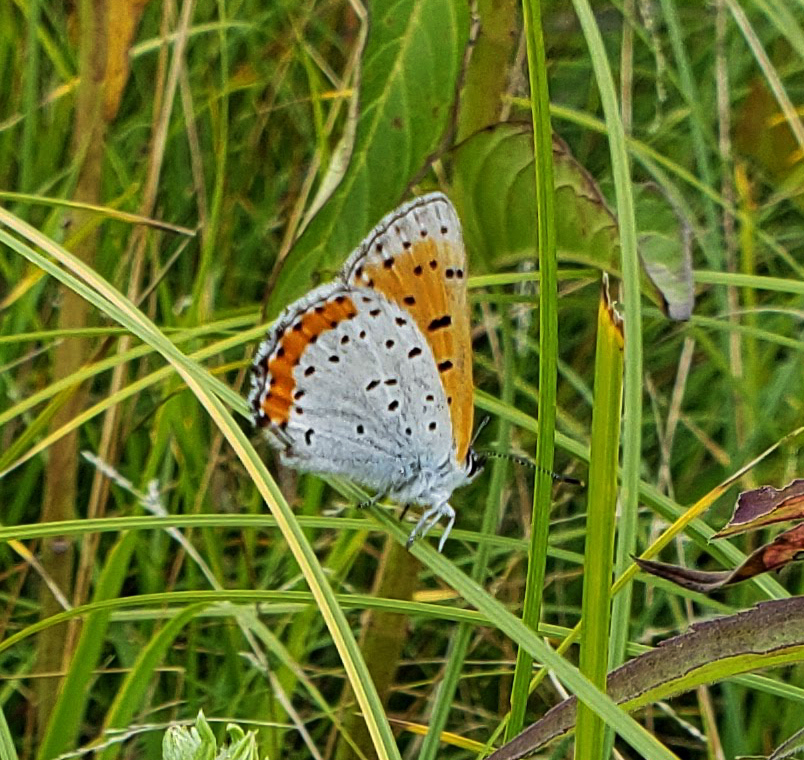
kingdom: Animalia
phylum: Arthropoda
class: Insecta
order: Lepidoptera
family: Lycaenidae
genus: Tharsalea
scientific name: Tharsalea hyllus
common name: Bronze copper
